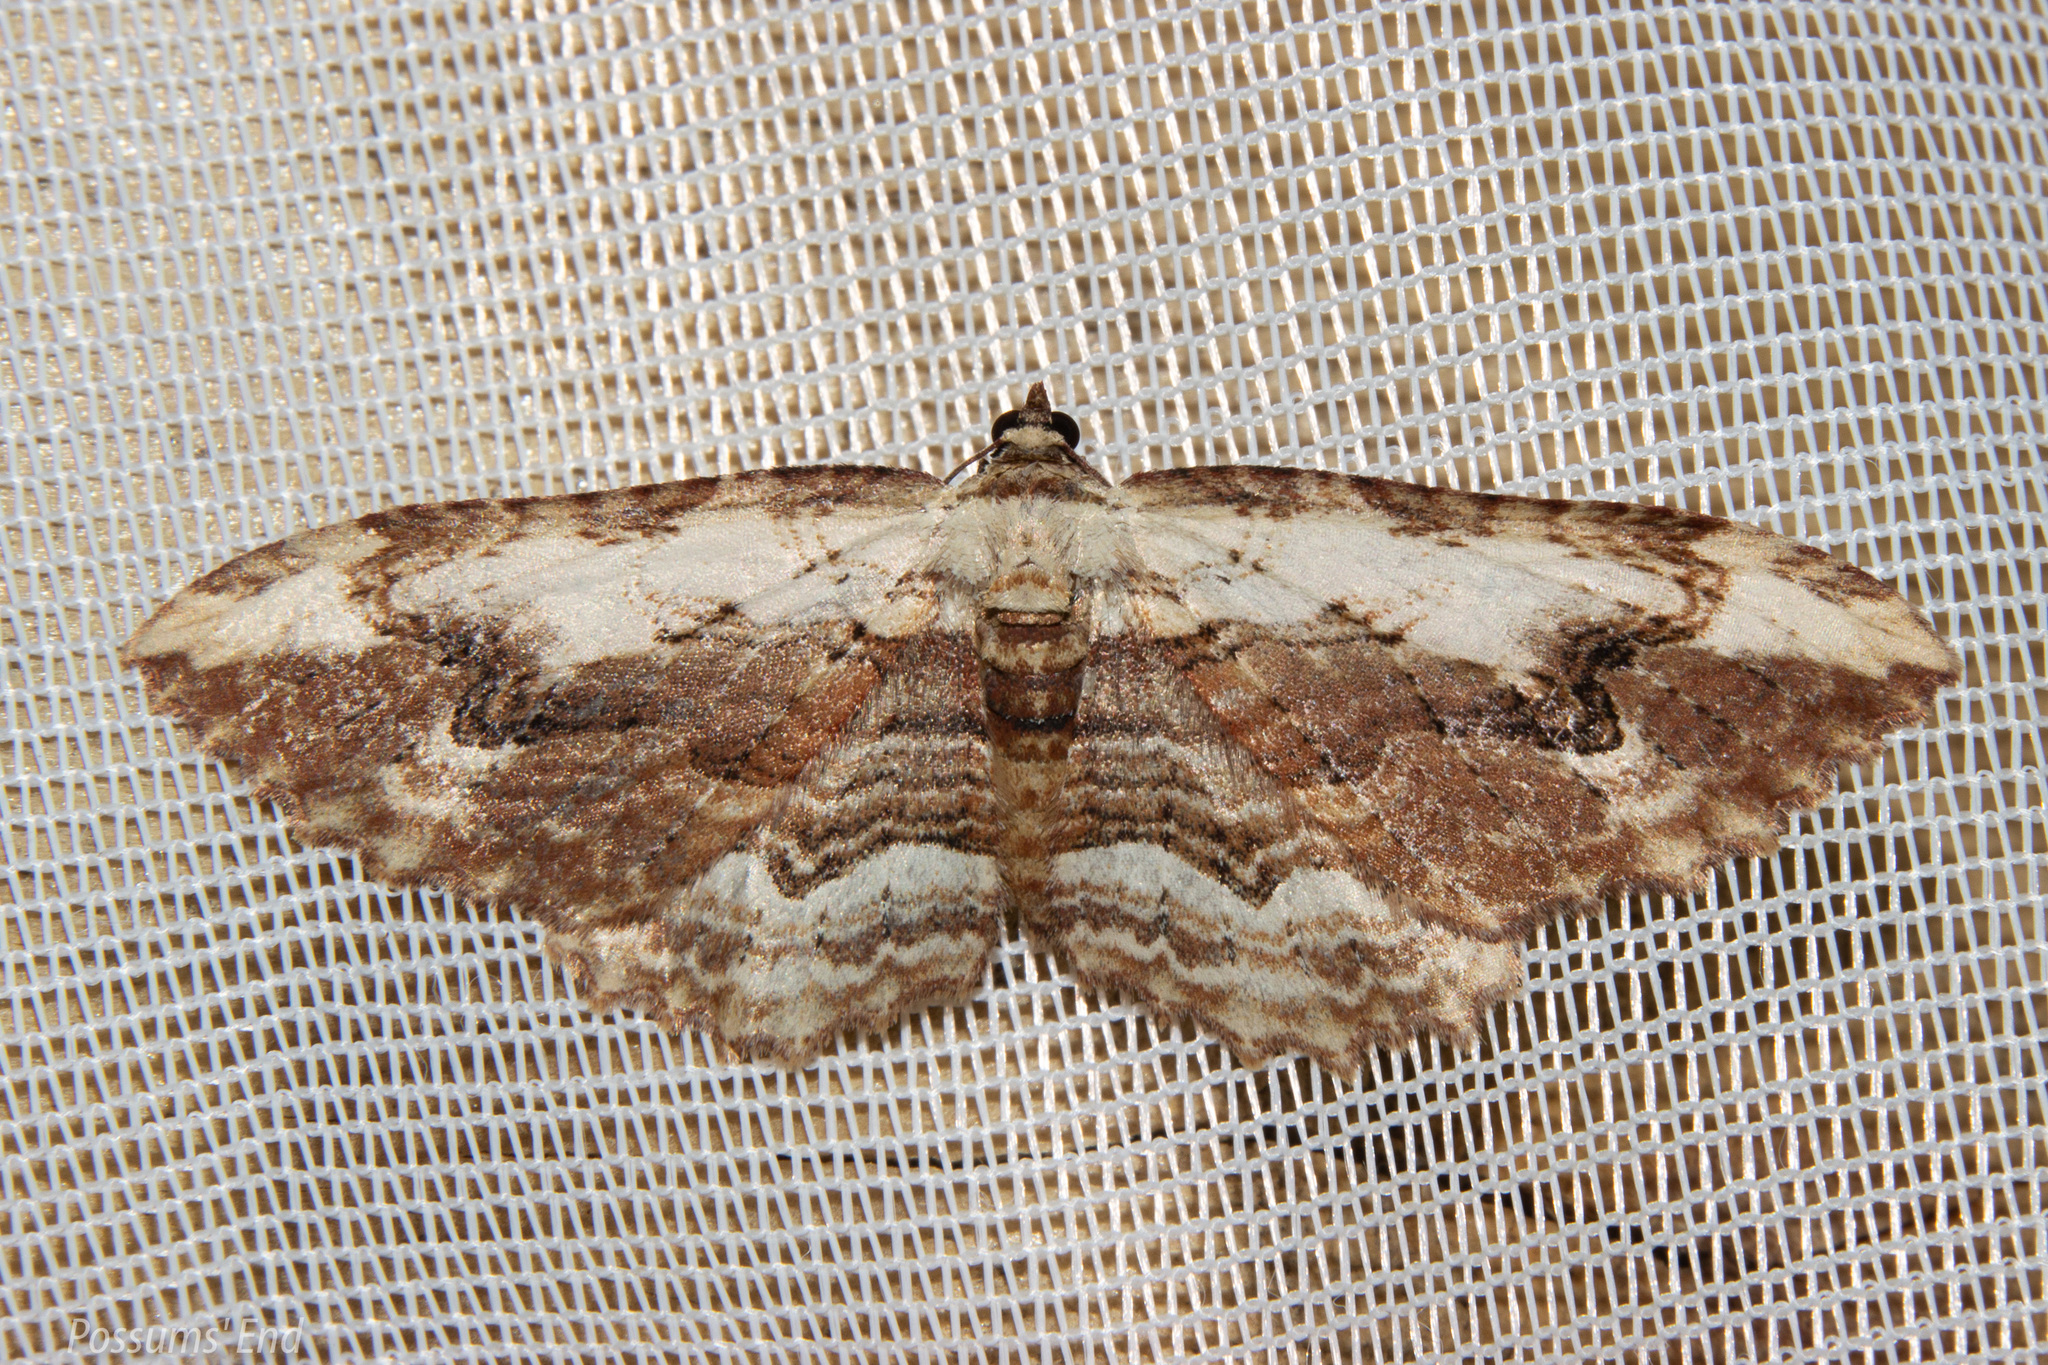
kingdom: Animalia
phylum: Arthropoda
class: Insecta
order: Lepidoptera
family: Geometridae
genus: Austrocidaria
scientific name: Austrocidaria bipartita
